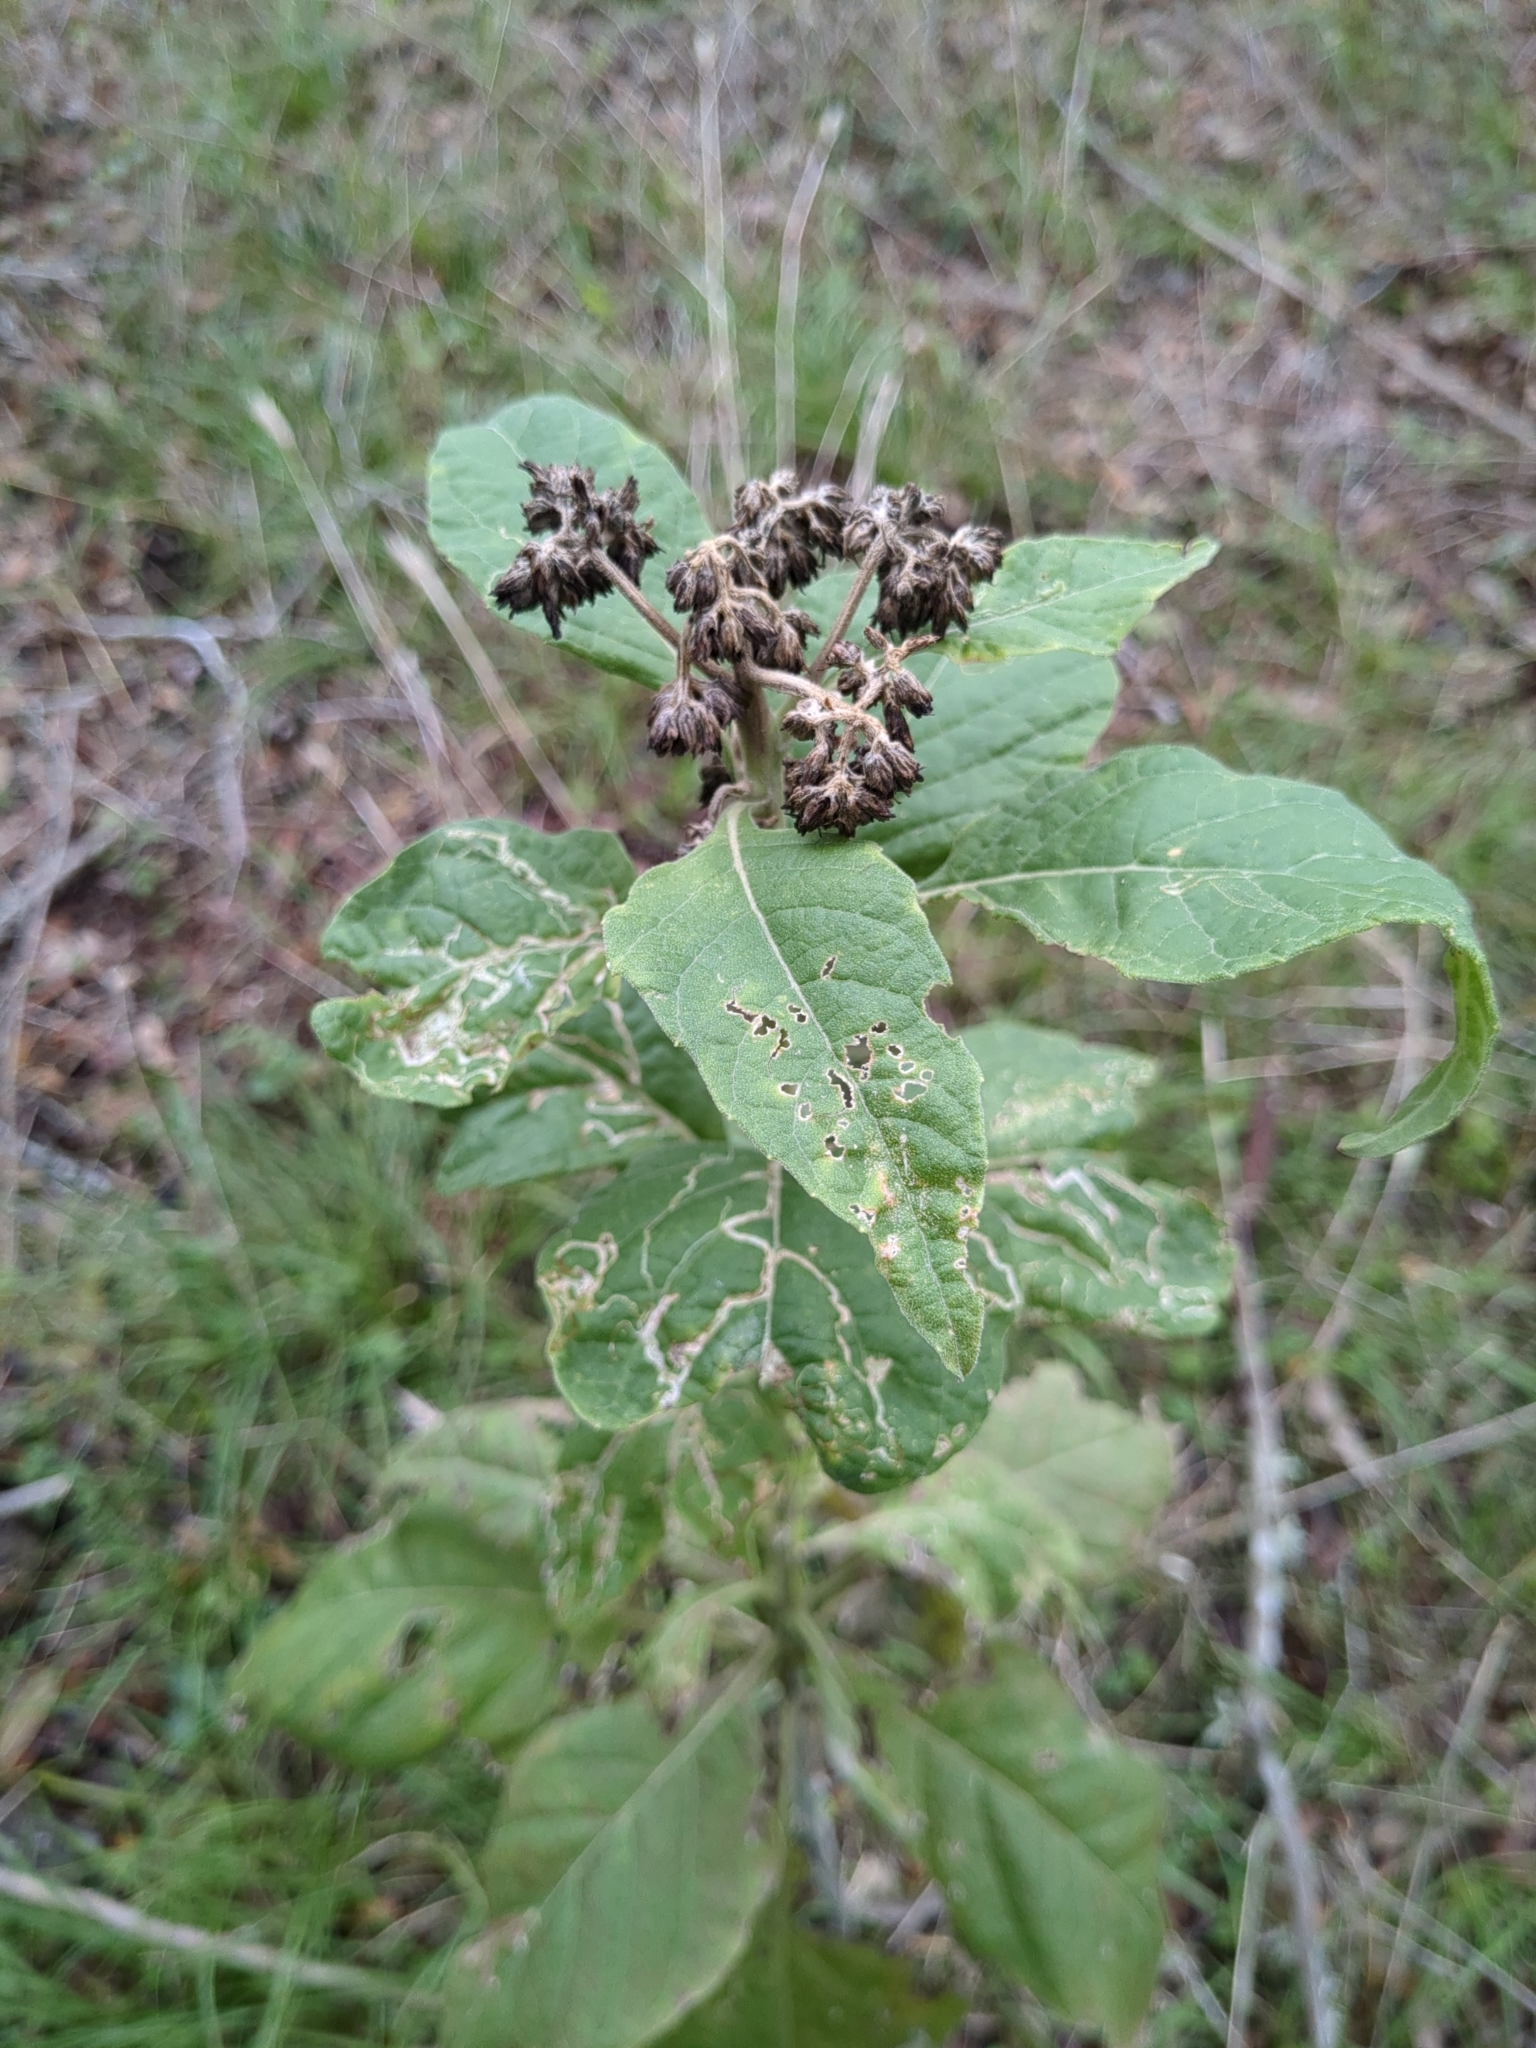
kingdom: Plantae
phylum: Tracheophyta
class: Magnoliopsida
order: Asterales
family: Asteraceae
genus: Verbesina
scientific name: Verbesina virginica
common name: Frostweed
